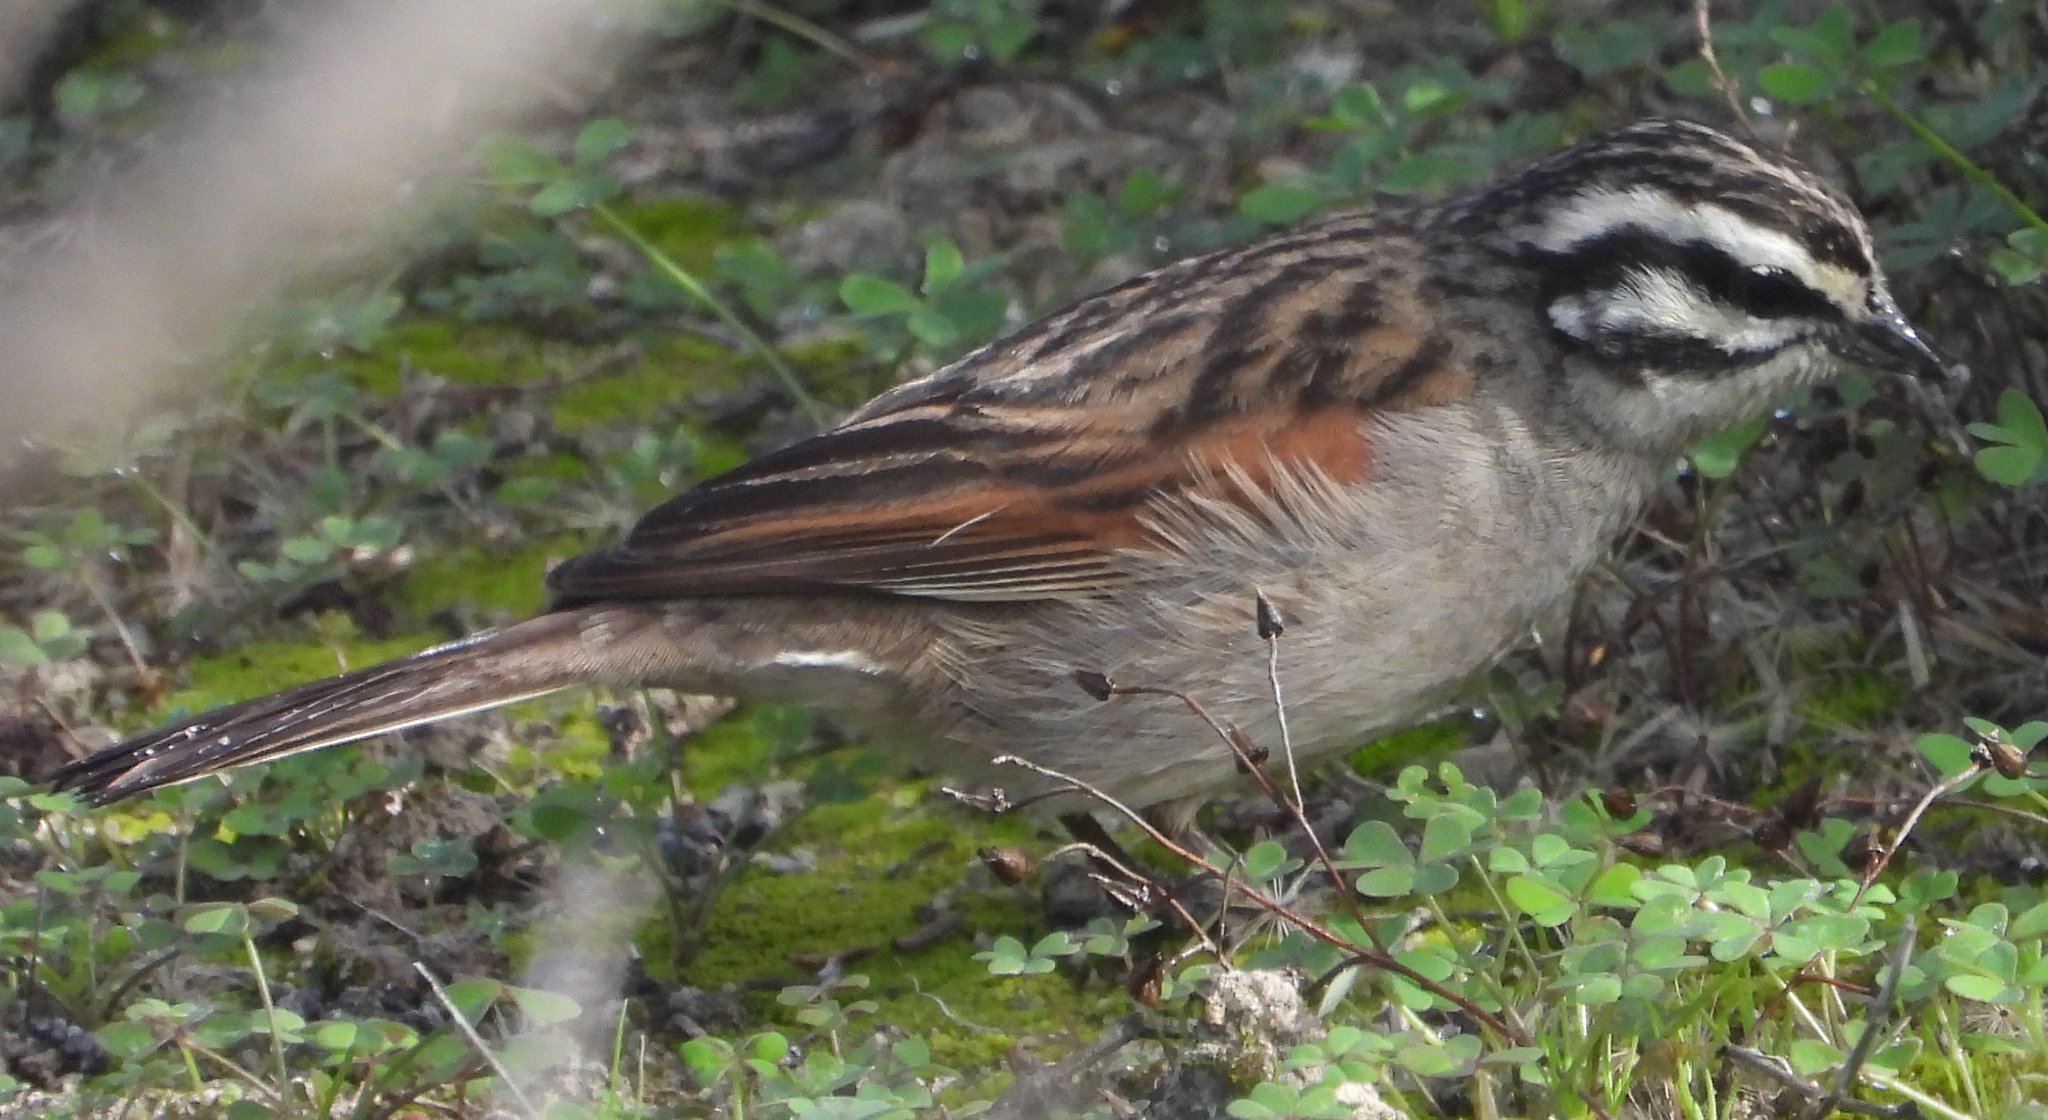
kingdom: Animalia
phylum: Chordata
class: Aves
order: Passeriformes
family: Emberizidae
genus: Emberiza
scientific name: Emberiza capensis
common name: Cape bunting
